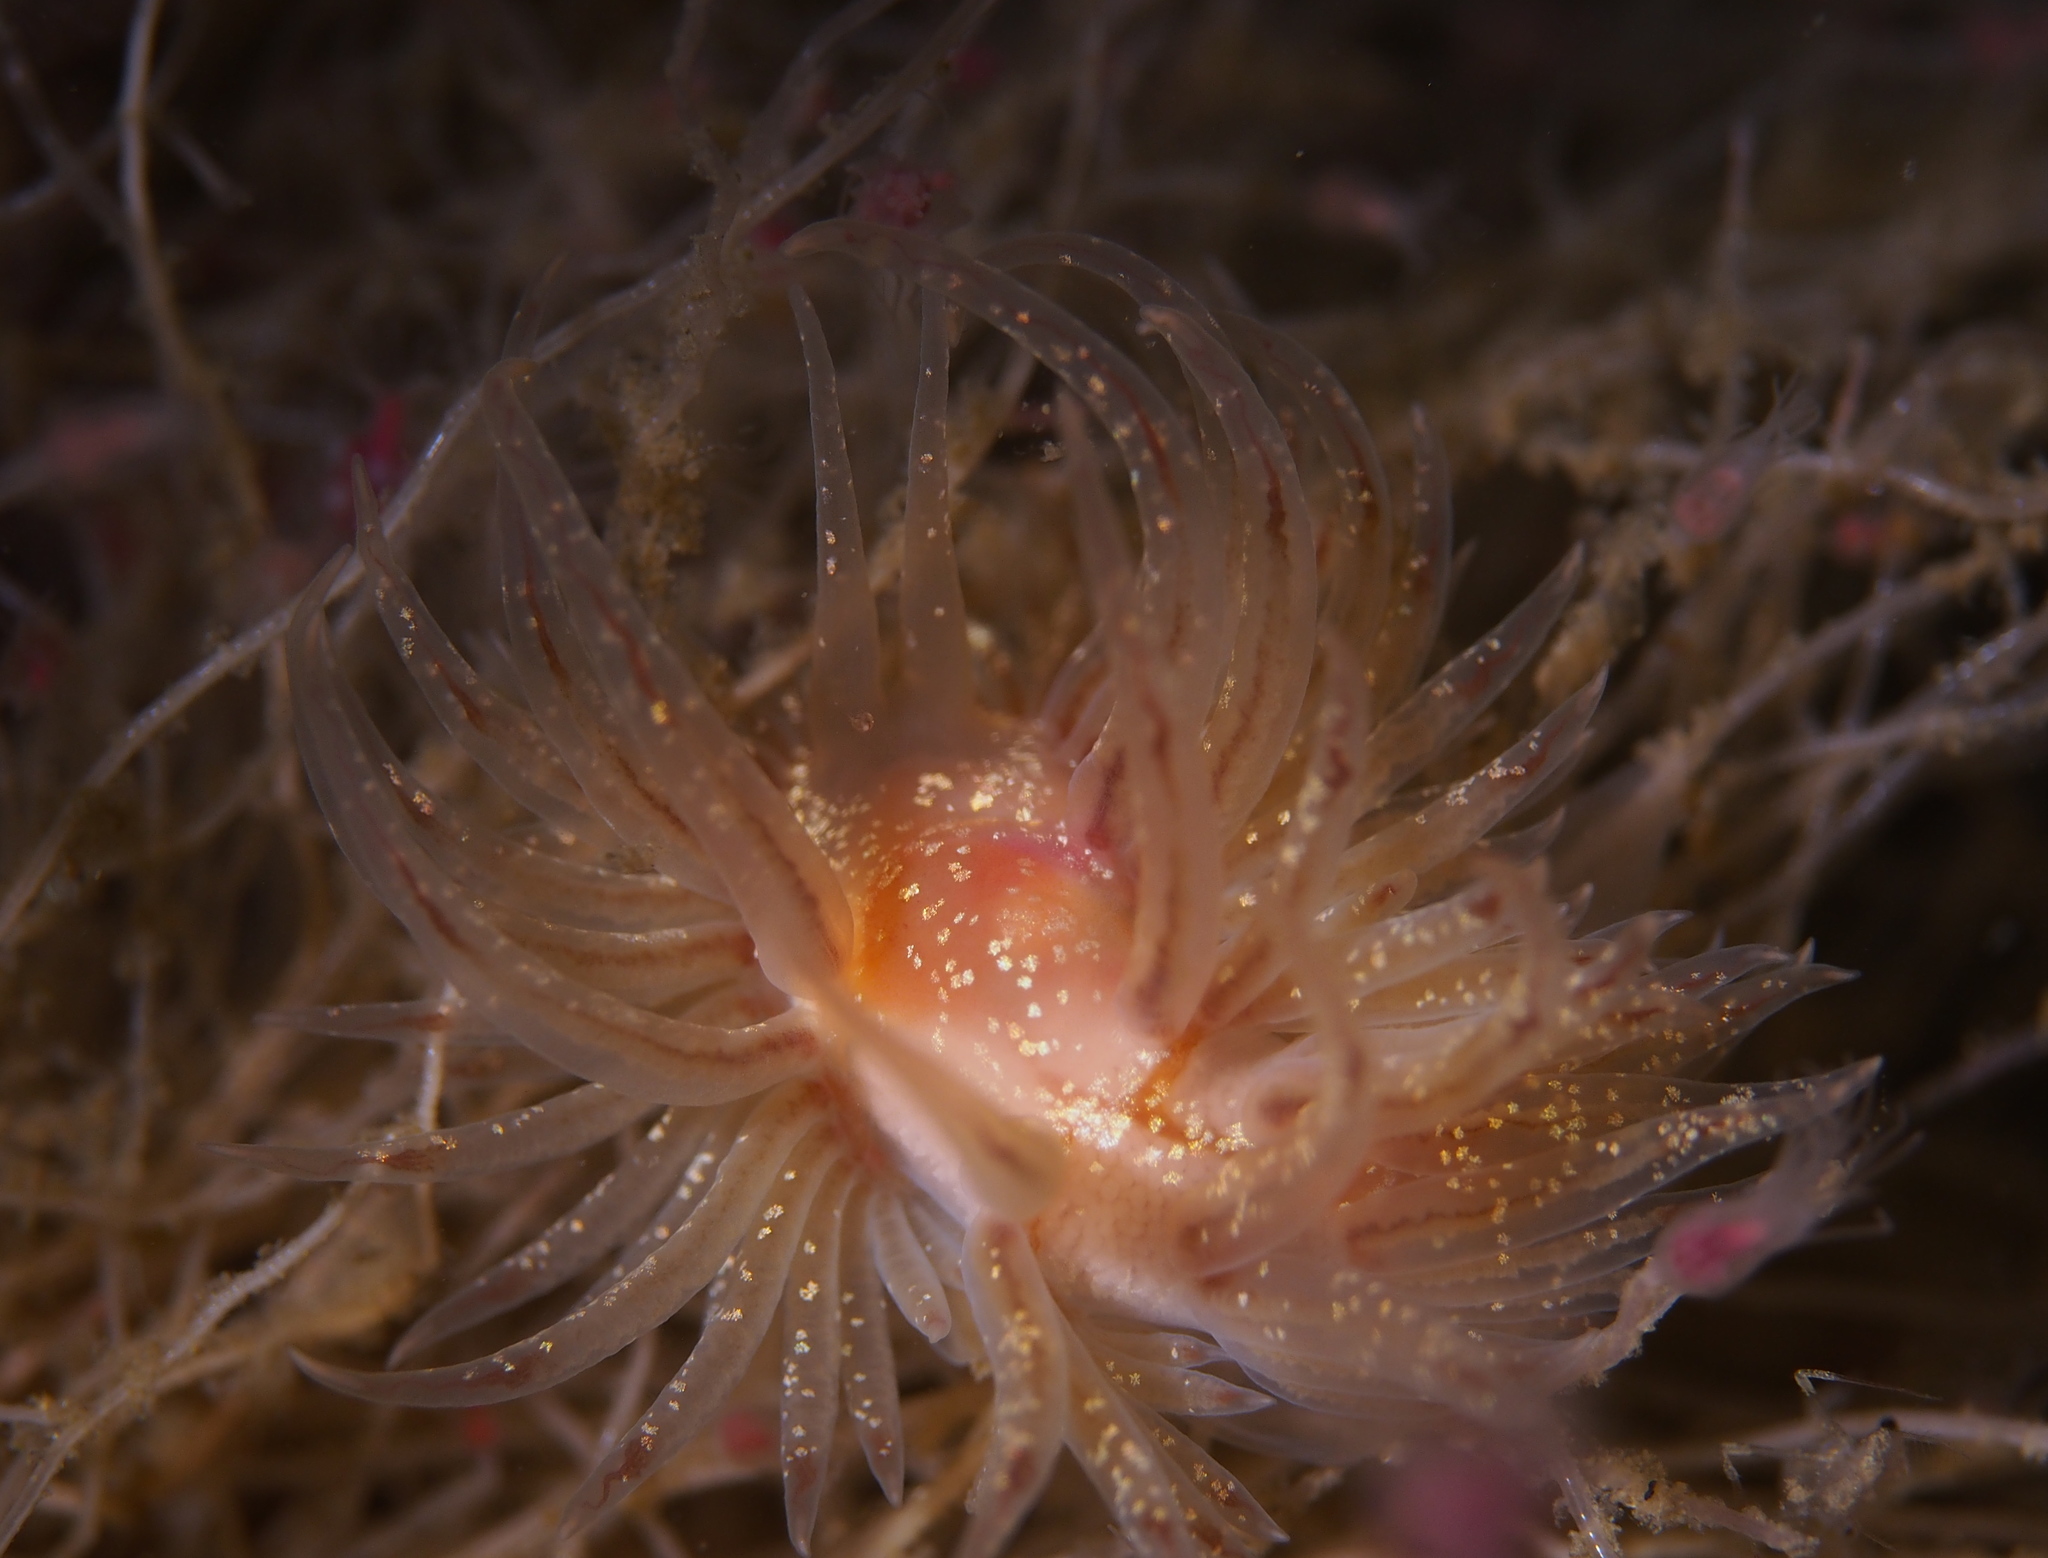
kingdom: Animalia
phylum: Mollusca
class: Gastropoda
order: Nudibranchia
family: Cumanotidae
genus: Cumanotus
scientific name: Cumanotus beaumonti
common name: Polyp aeolis
